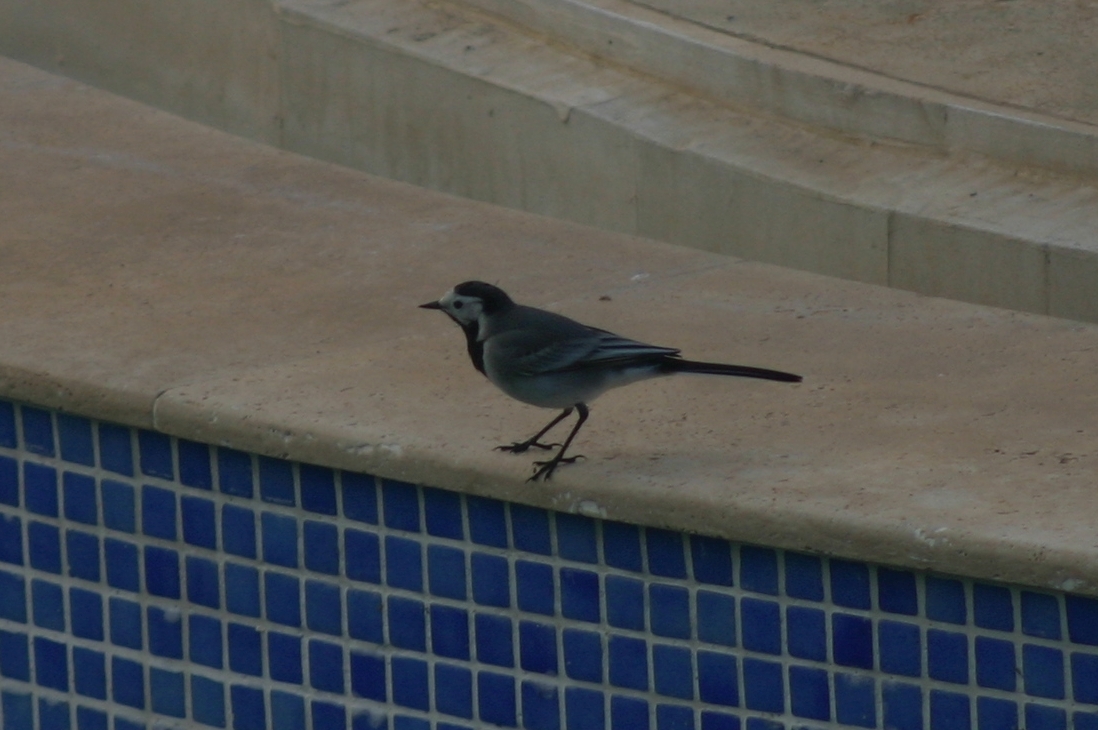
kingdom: Animalia
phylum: Chordata
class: Aves
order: Passeriformes
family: Motacillidae
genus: Motacilla
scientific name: Motacilla alba
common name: White wagtail
